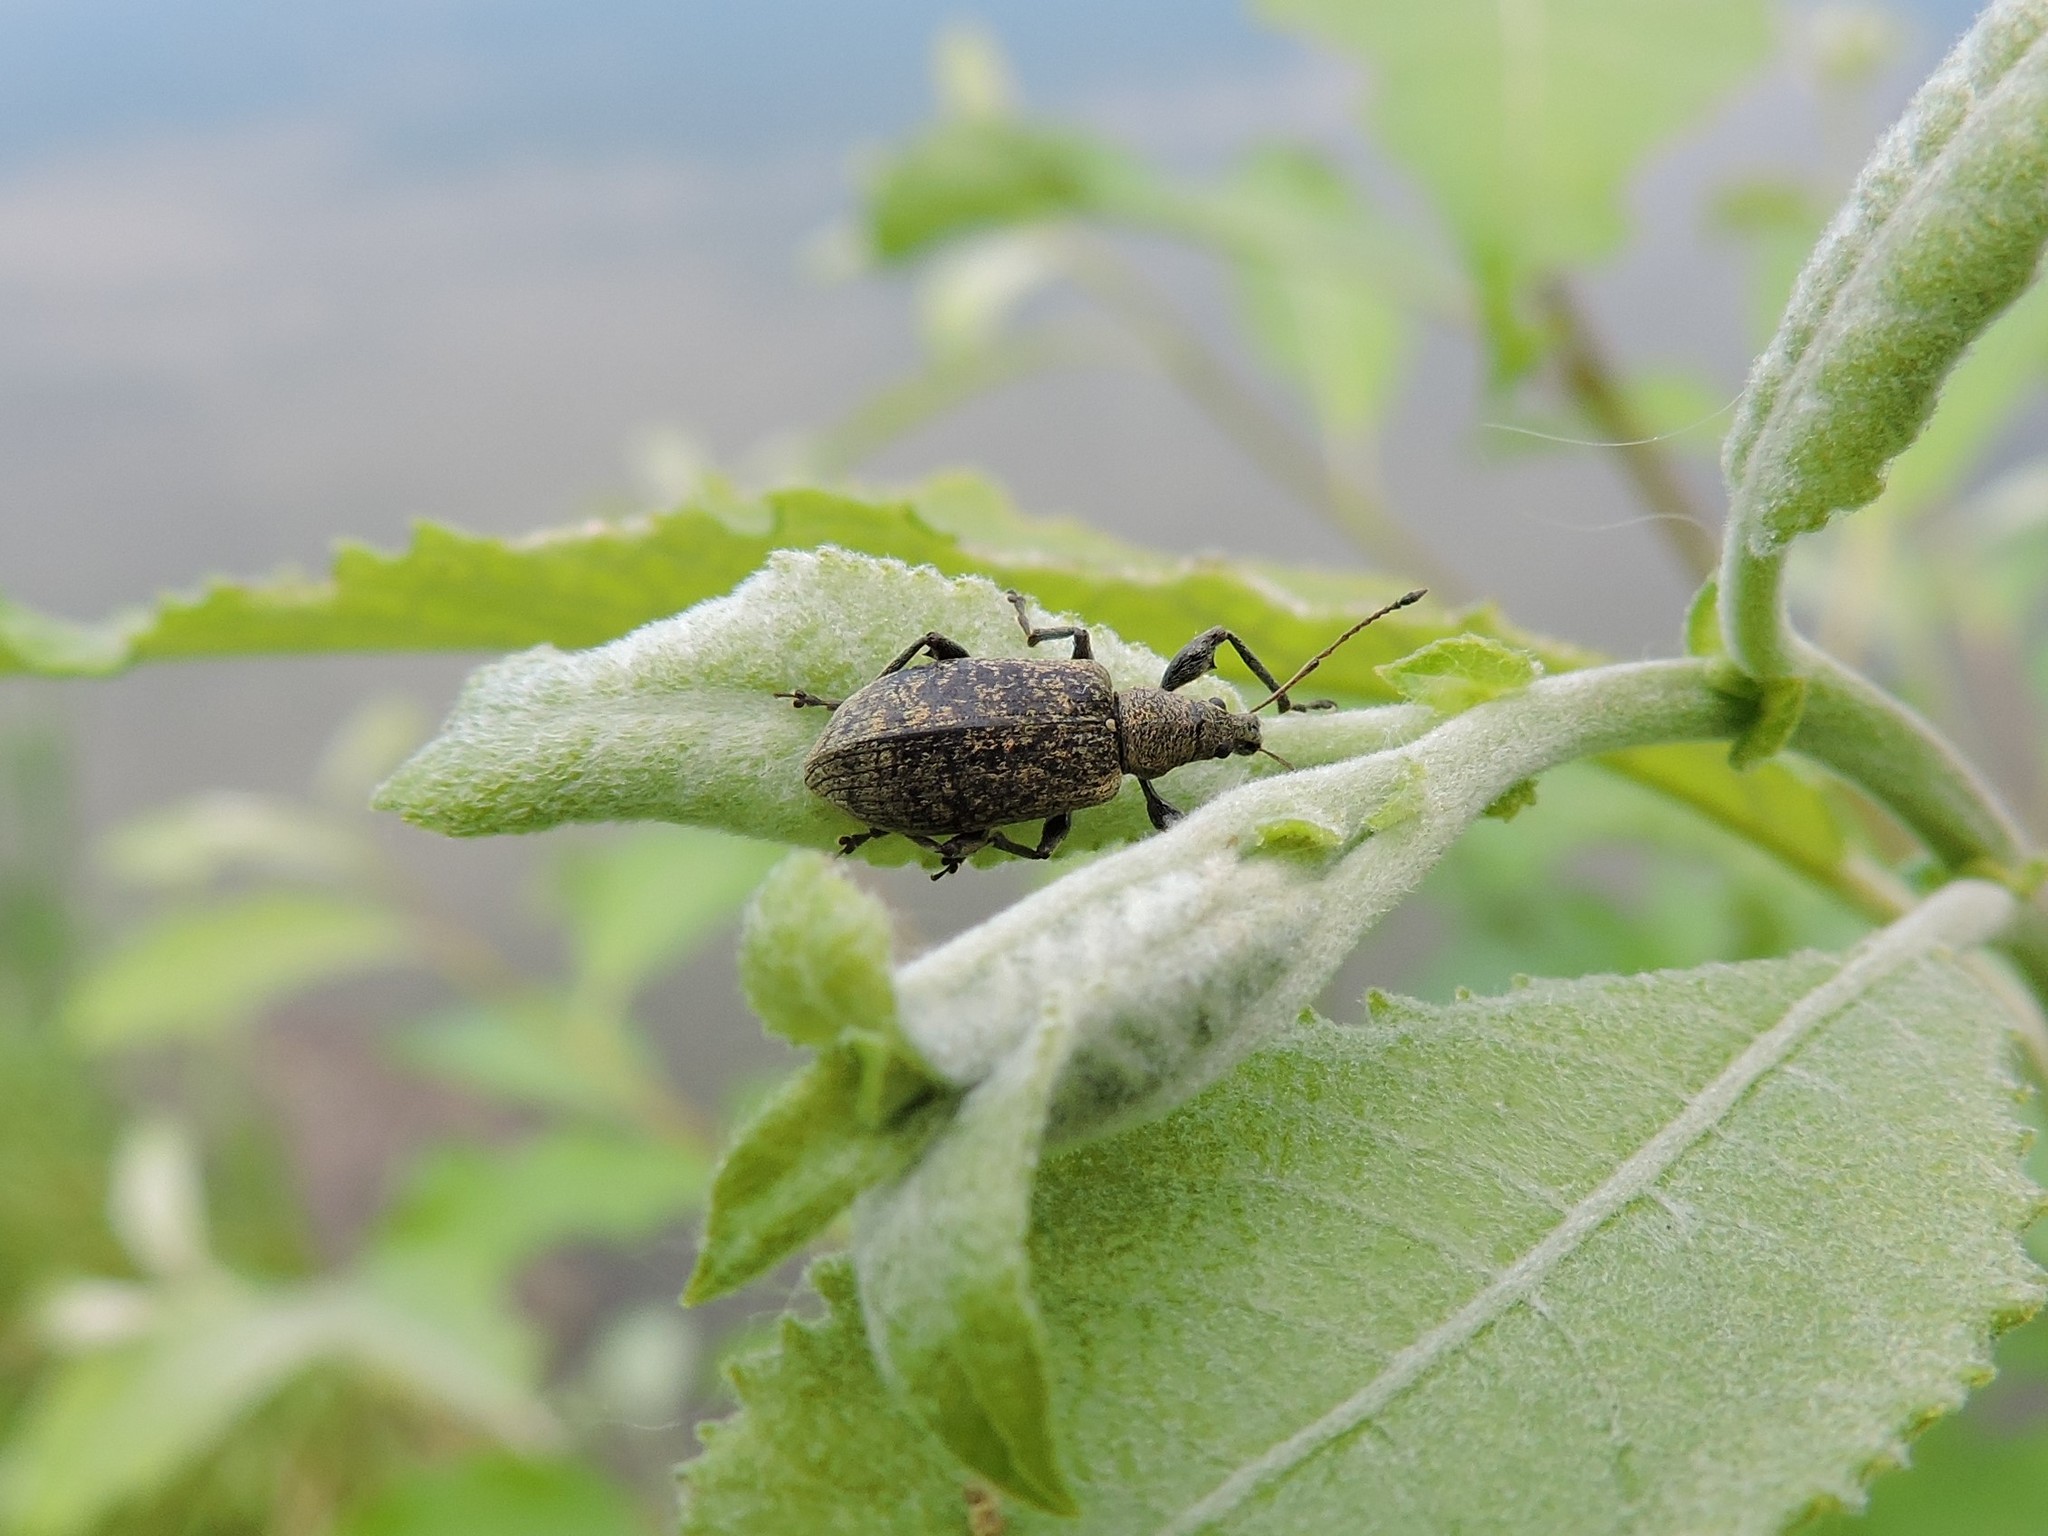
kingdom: Animalia
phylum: Arthropoda
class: Insecta
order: Coleoptera
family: Curculionidae
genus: Phyllobius
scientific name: Phyllobius glaucus
